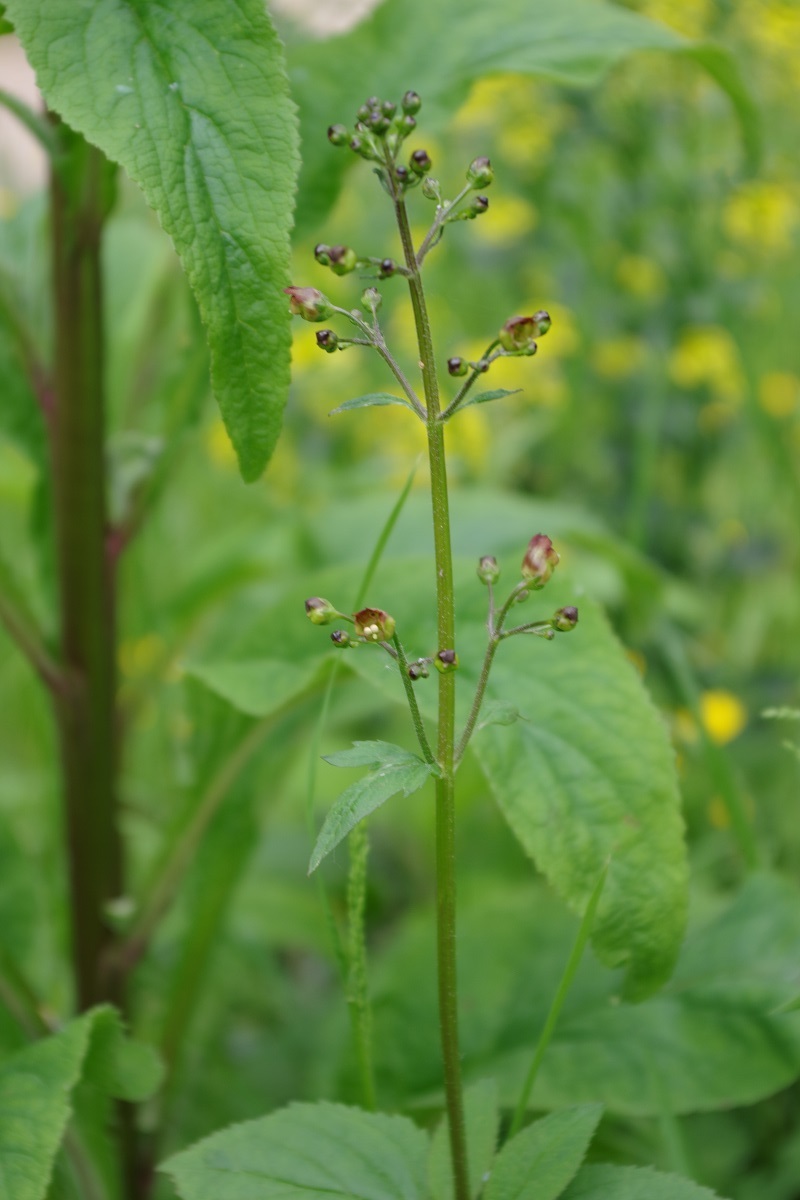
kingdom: Plantae
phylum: Tracheophyta
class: Magnoliopsida
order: Lamiales
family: Scrophulariaceae
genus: Scrophularia
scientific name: Scrophularia nodosa
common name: Common figwort
